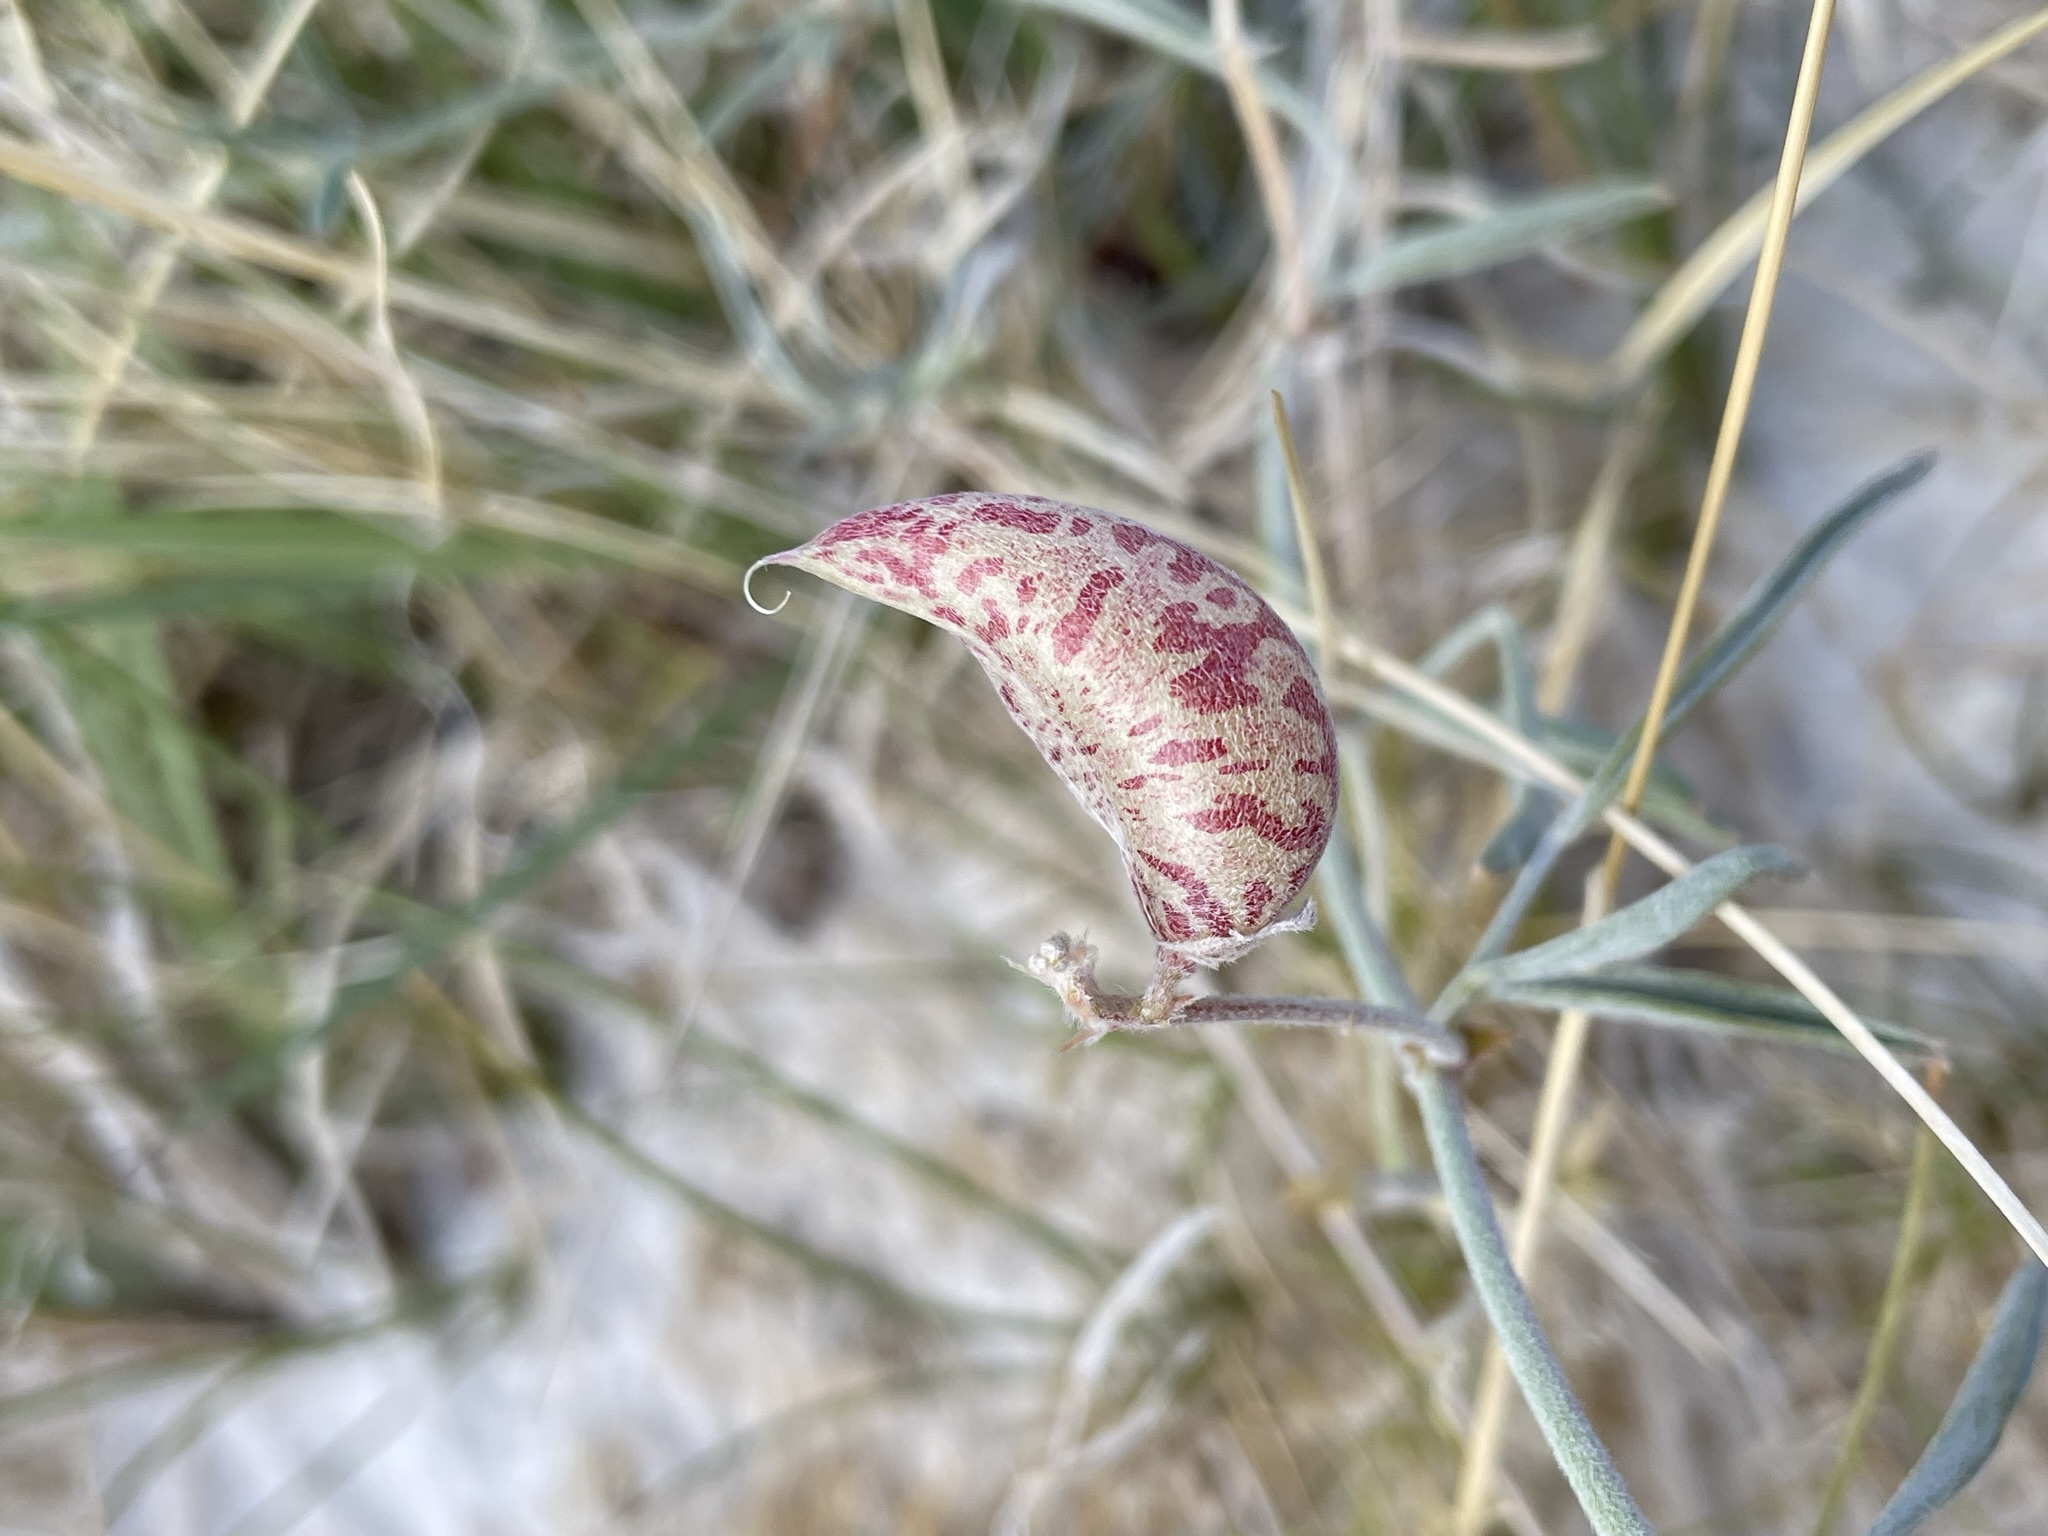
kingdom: Plantae
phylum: Tracheophyta
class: Magnoliopsida
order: Fabales
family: Fabaceae
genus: Astragalus
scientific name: Astragalus lentiginosus
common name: Freckled milkvetch
